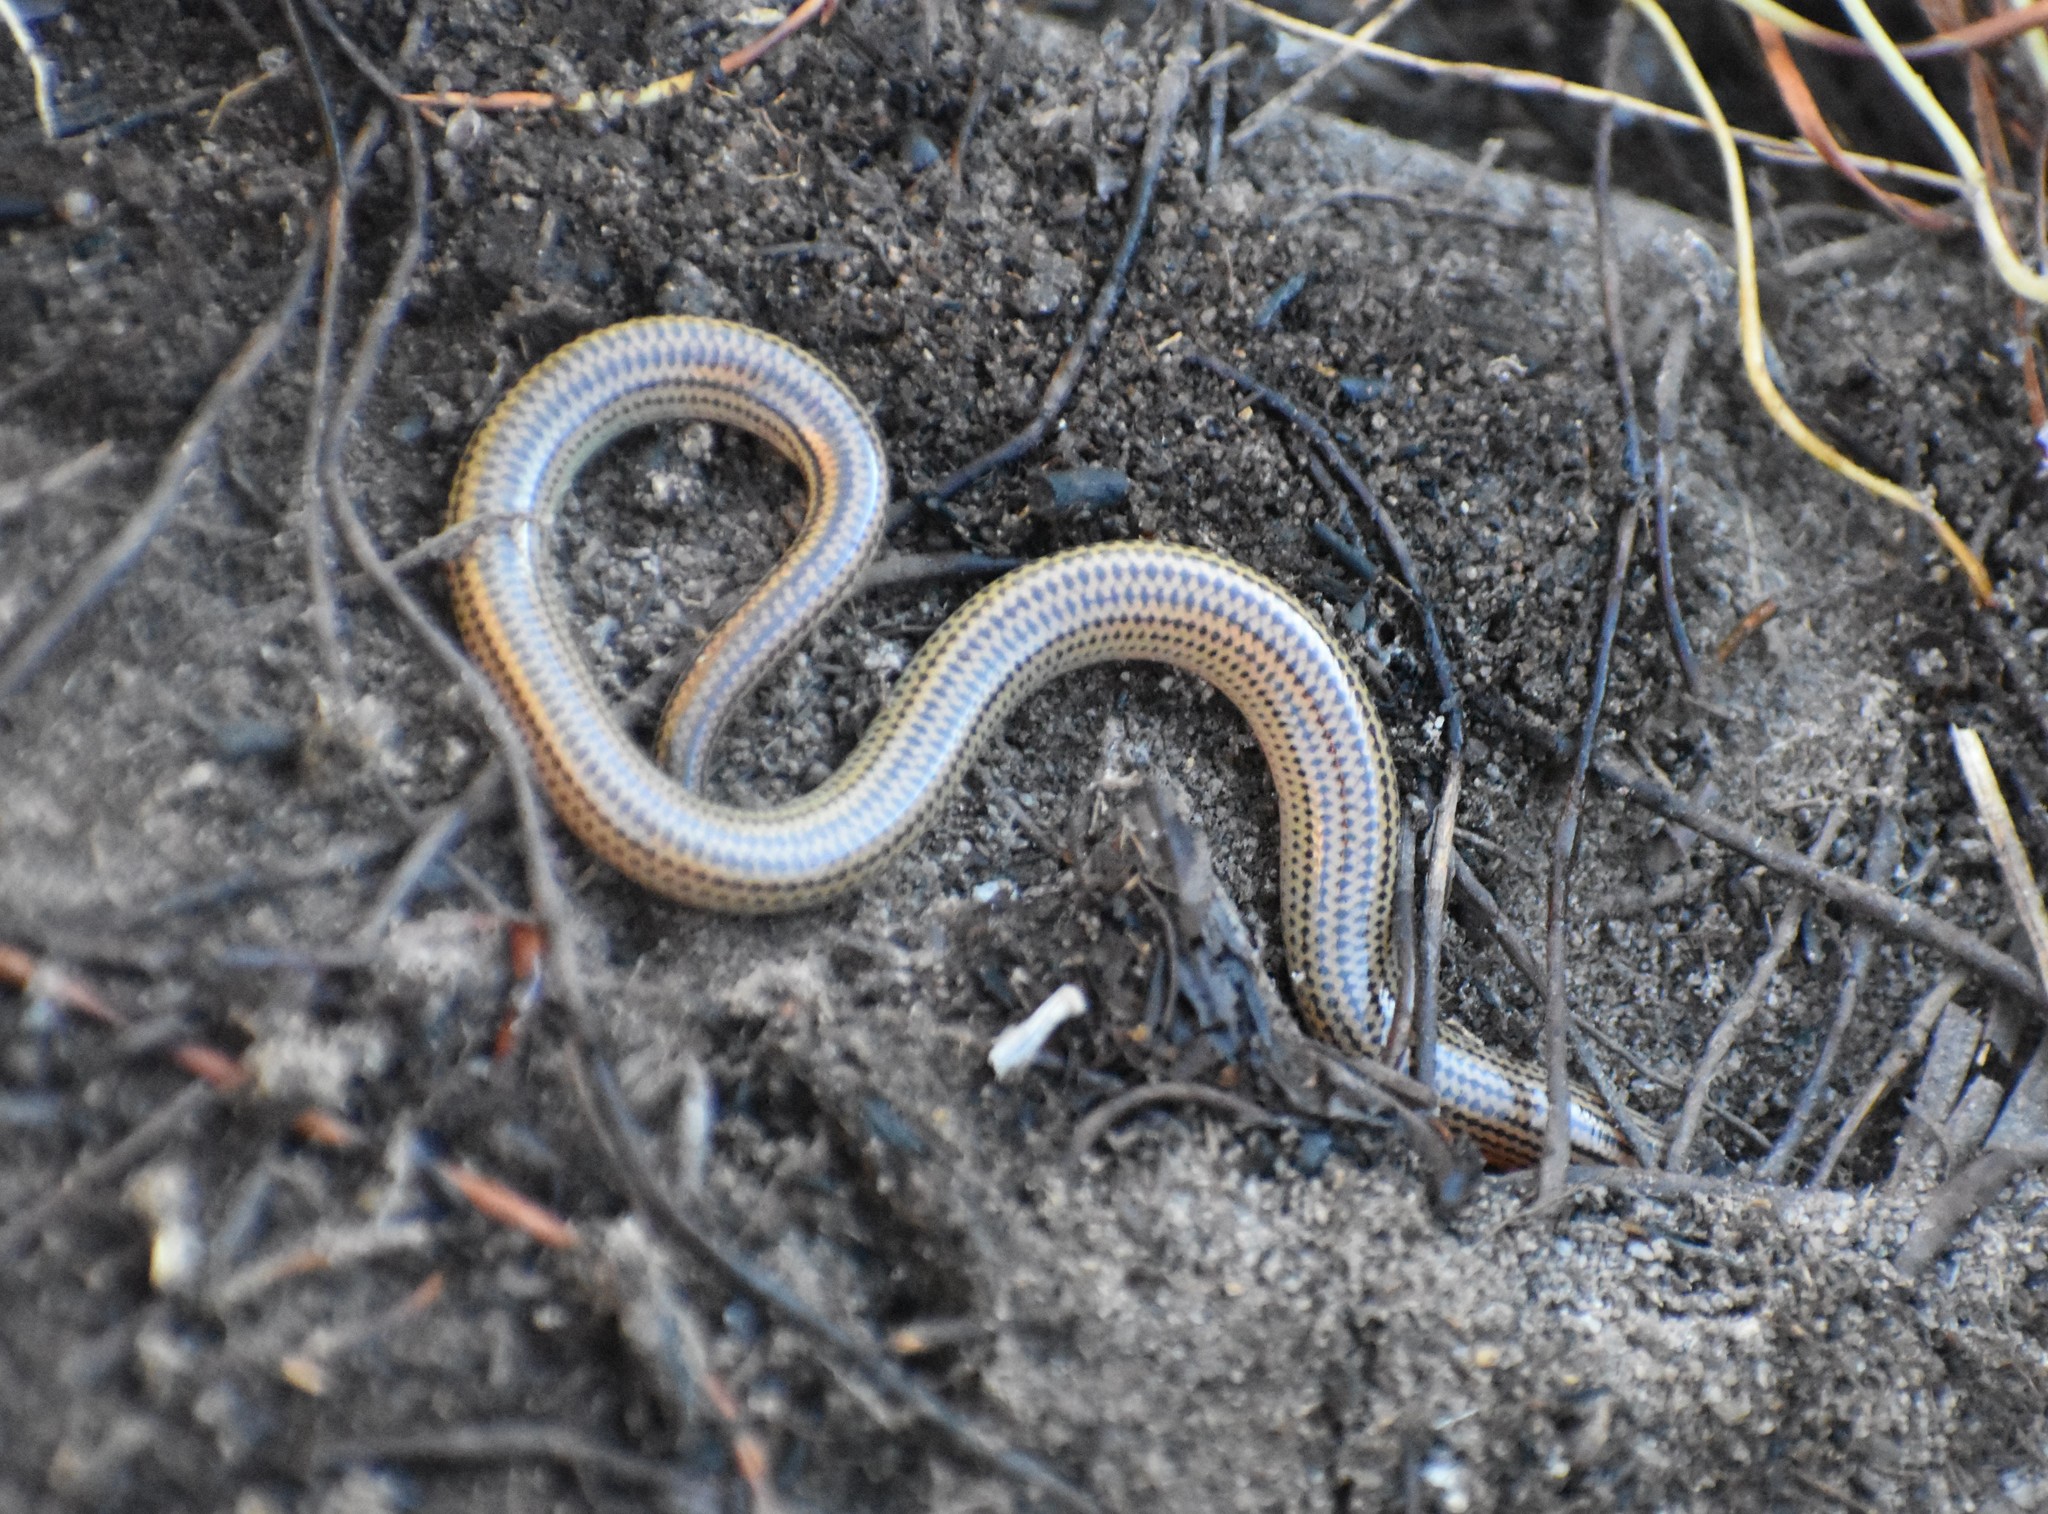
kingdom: Animalia
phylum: Chordata
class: Squamata
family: Scincidae
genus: Acontias
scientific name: Acontias meleagris
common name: Cape legless skink
